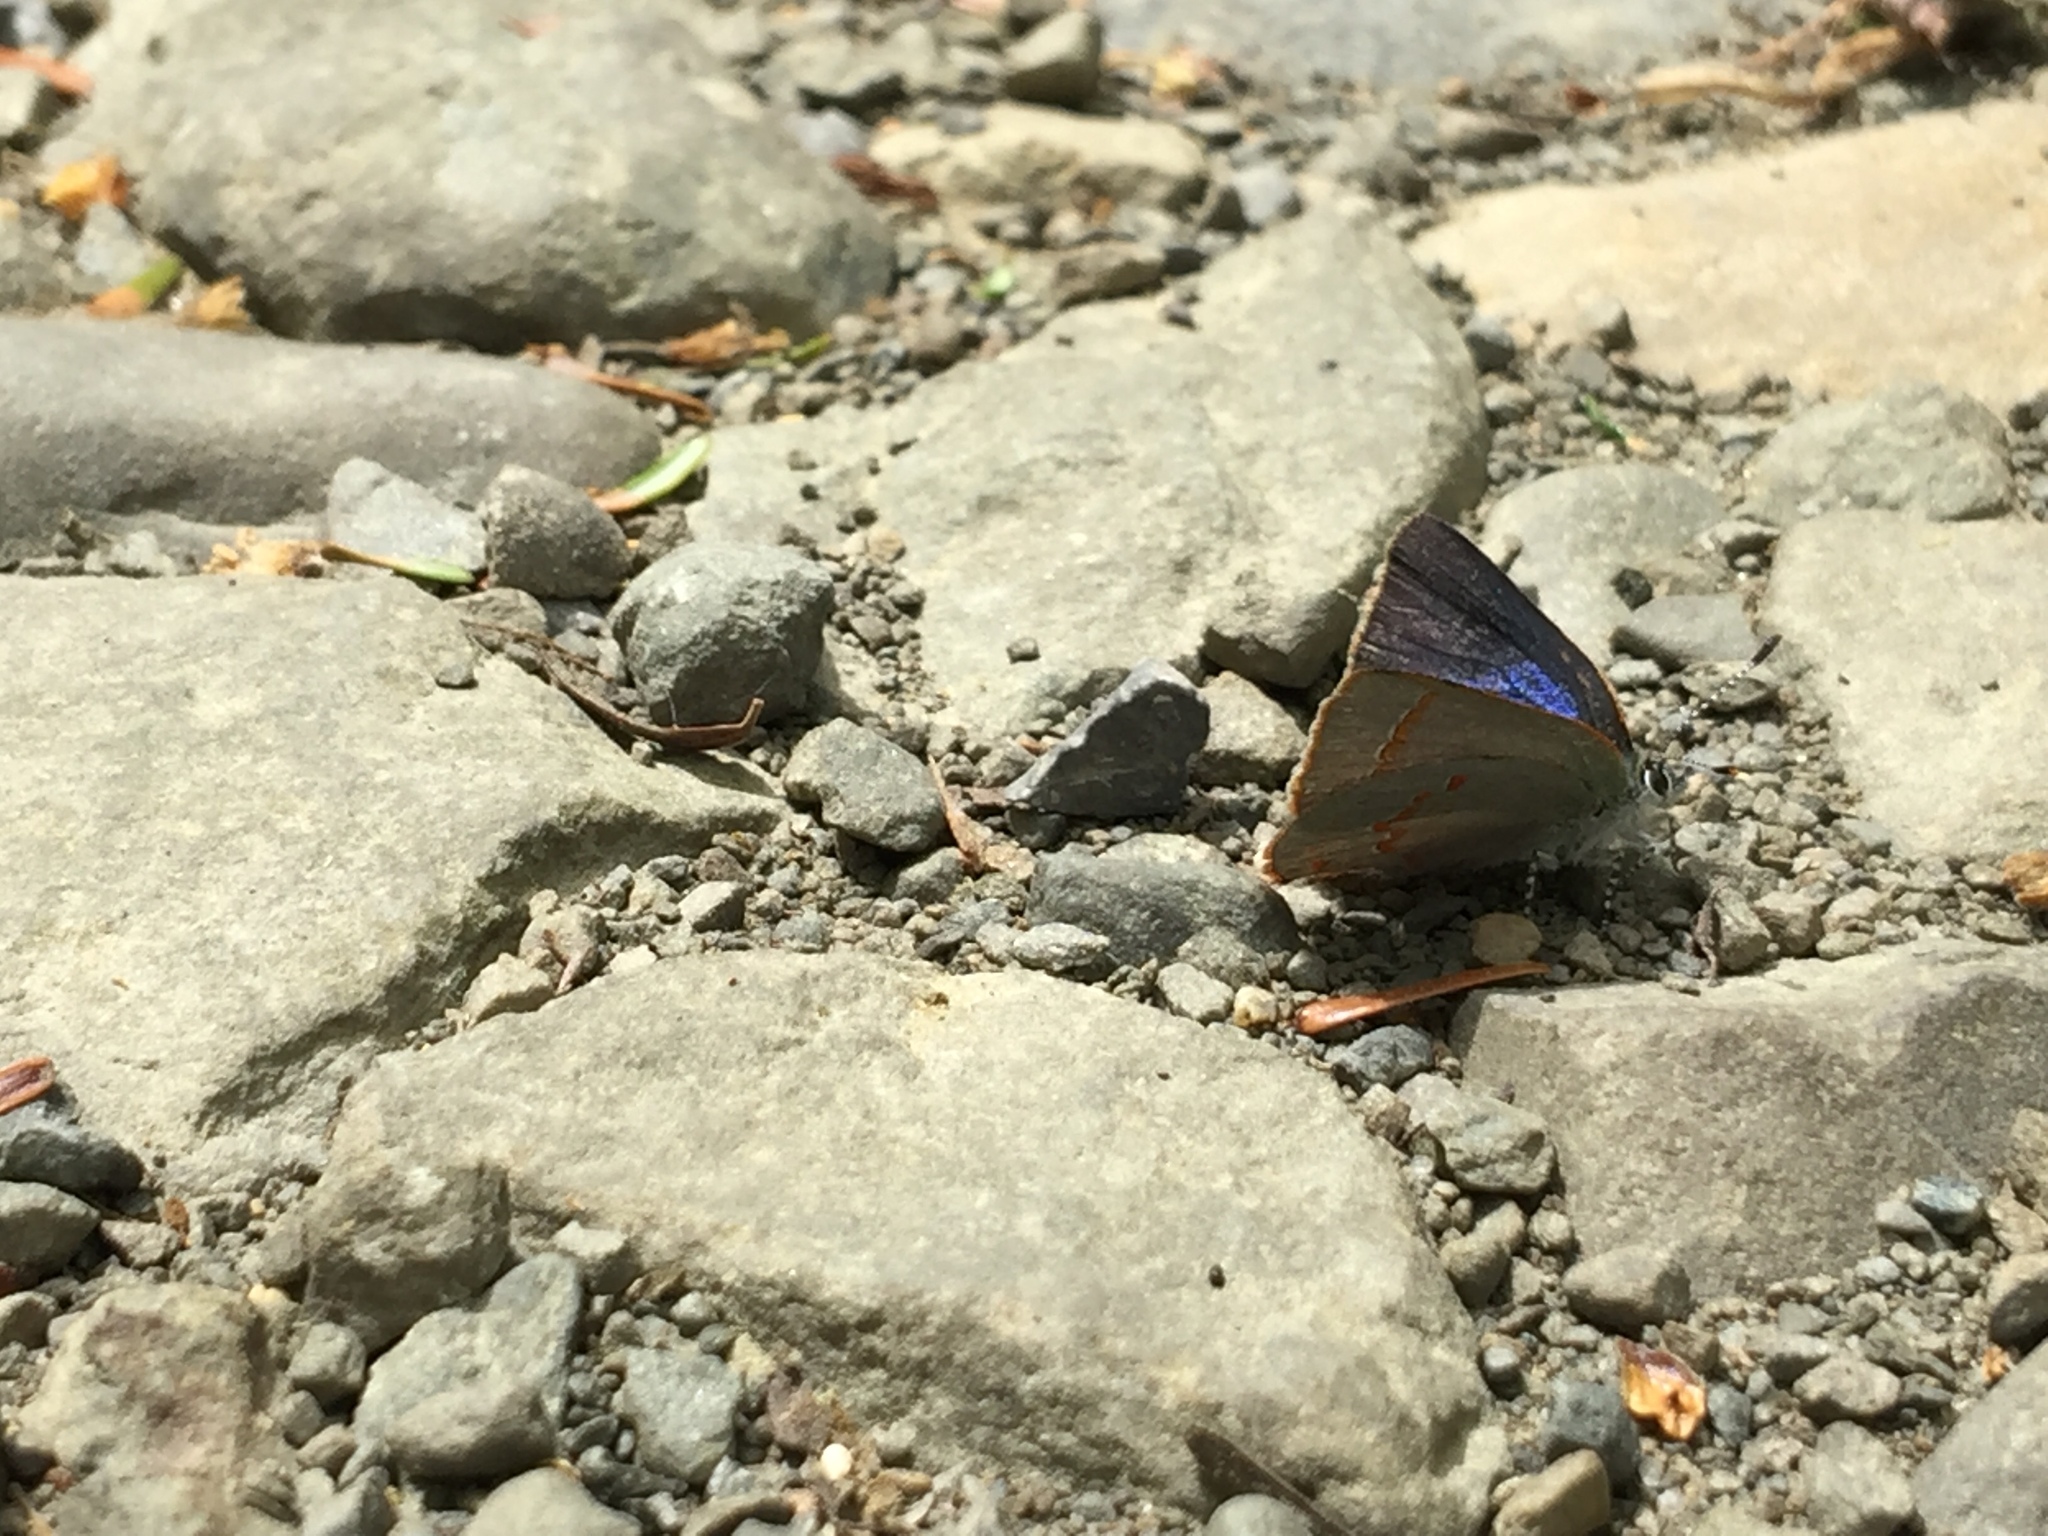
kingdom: Animalia
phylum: Arthropoda
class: Insecta
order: Lepidoptera
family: Lycaenidae
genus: Erora
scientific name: Erora laeta
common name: Early hairstreak
